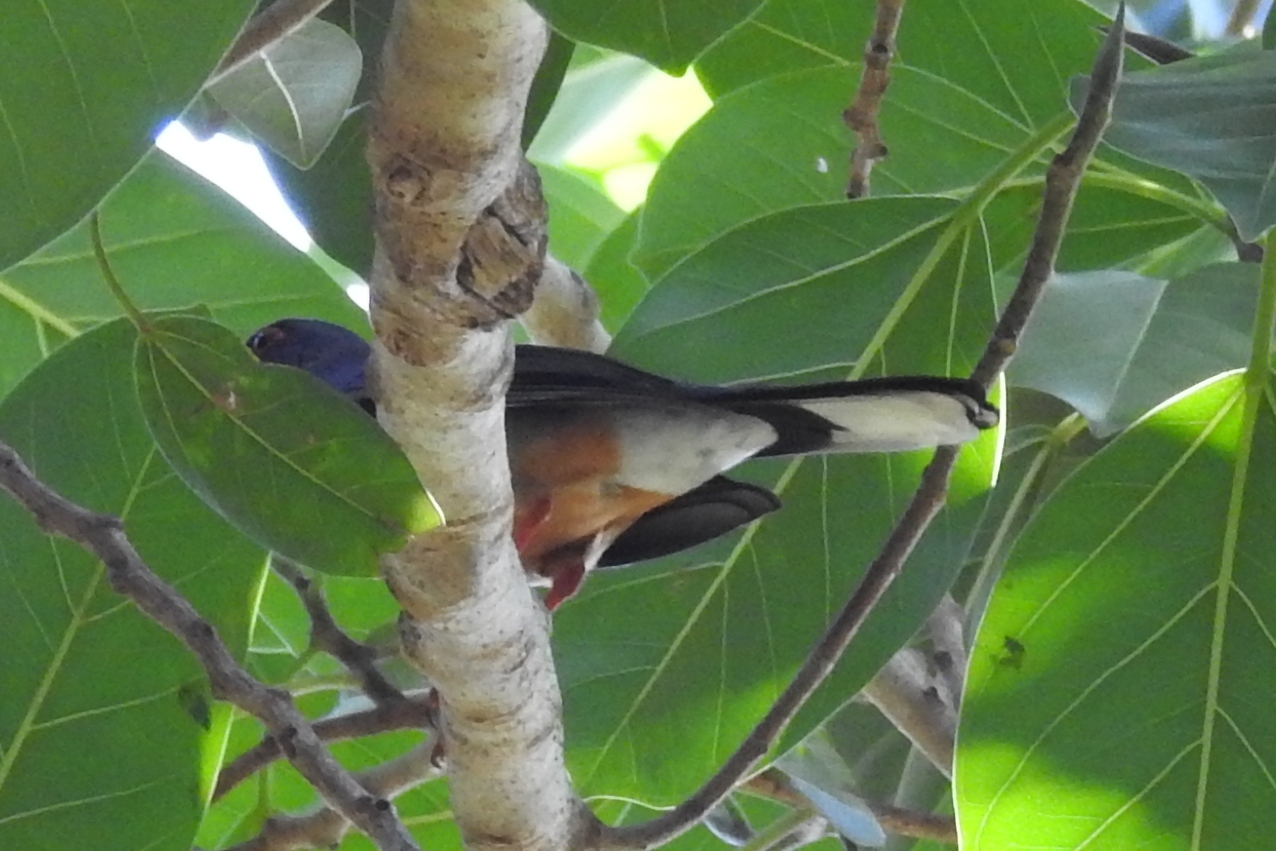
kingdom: Animalia
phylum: Chordata
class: Aves
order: Passeriformes
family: Turdidae
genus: Turdus
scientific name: Turdus plumbeus
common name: Red-legged thrush
